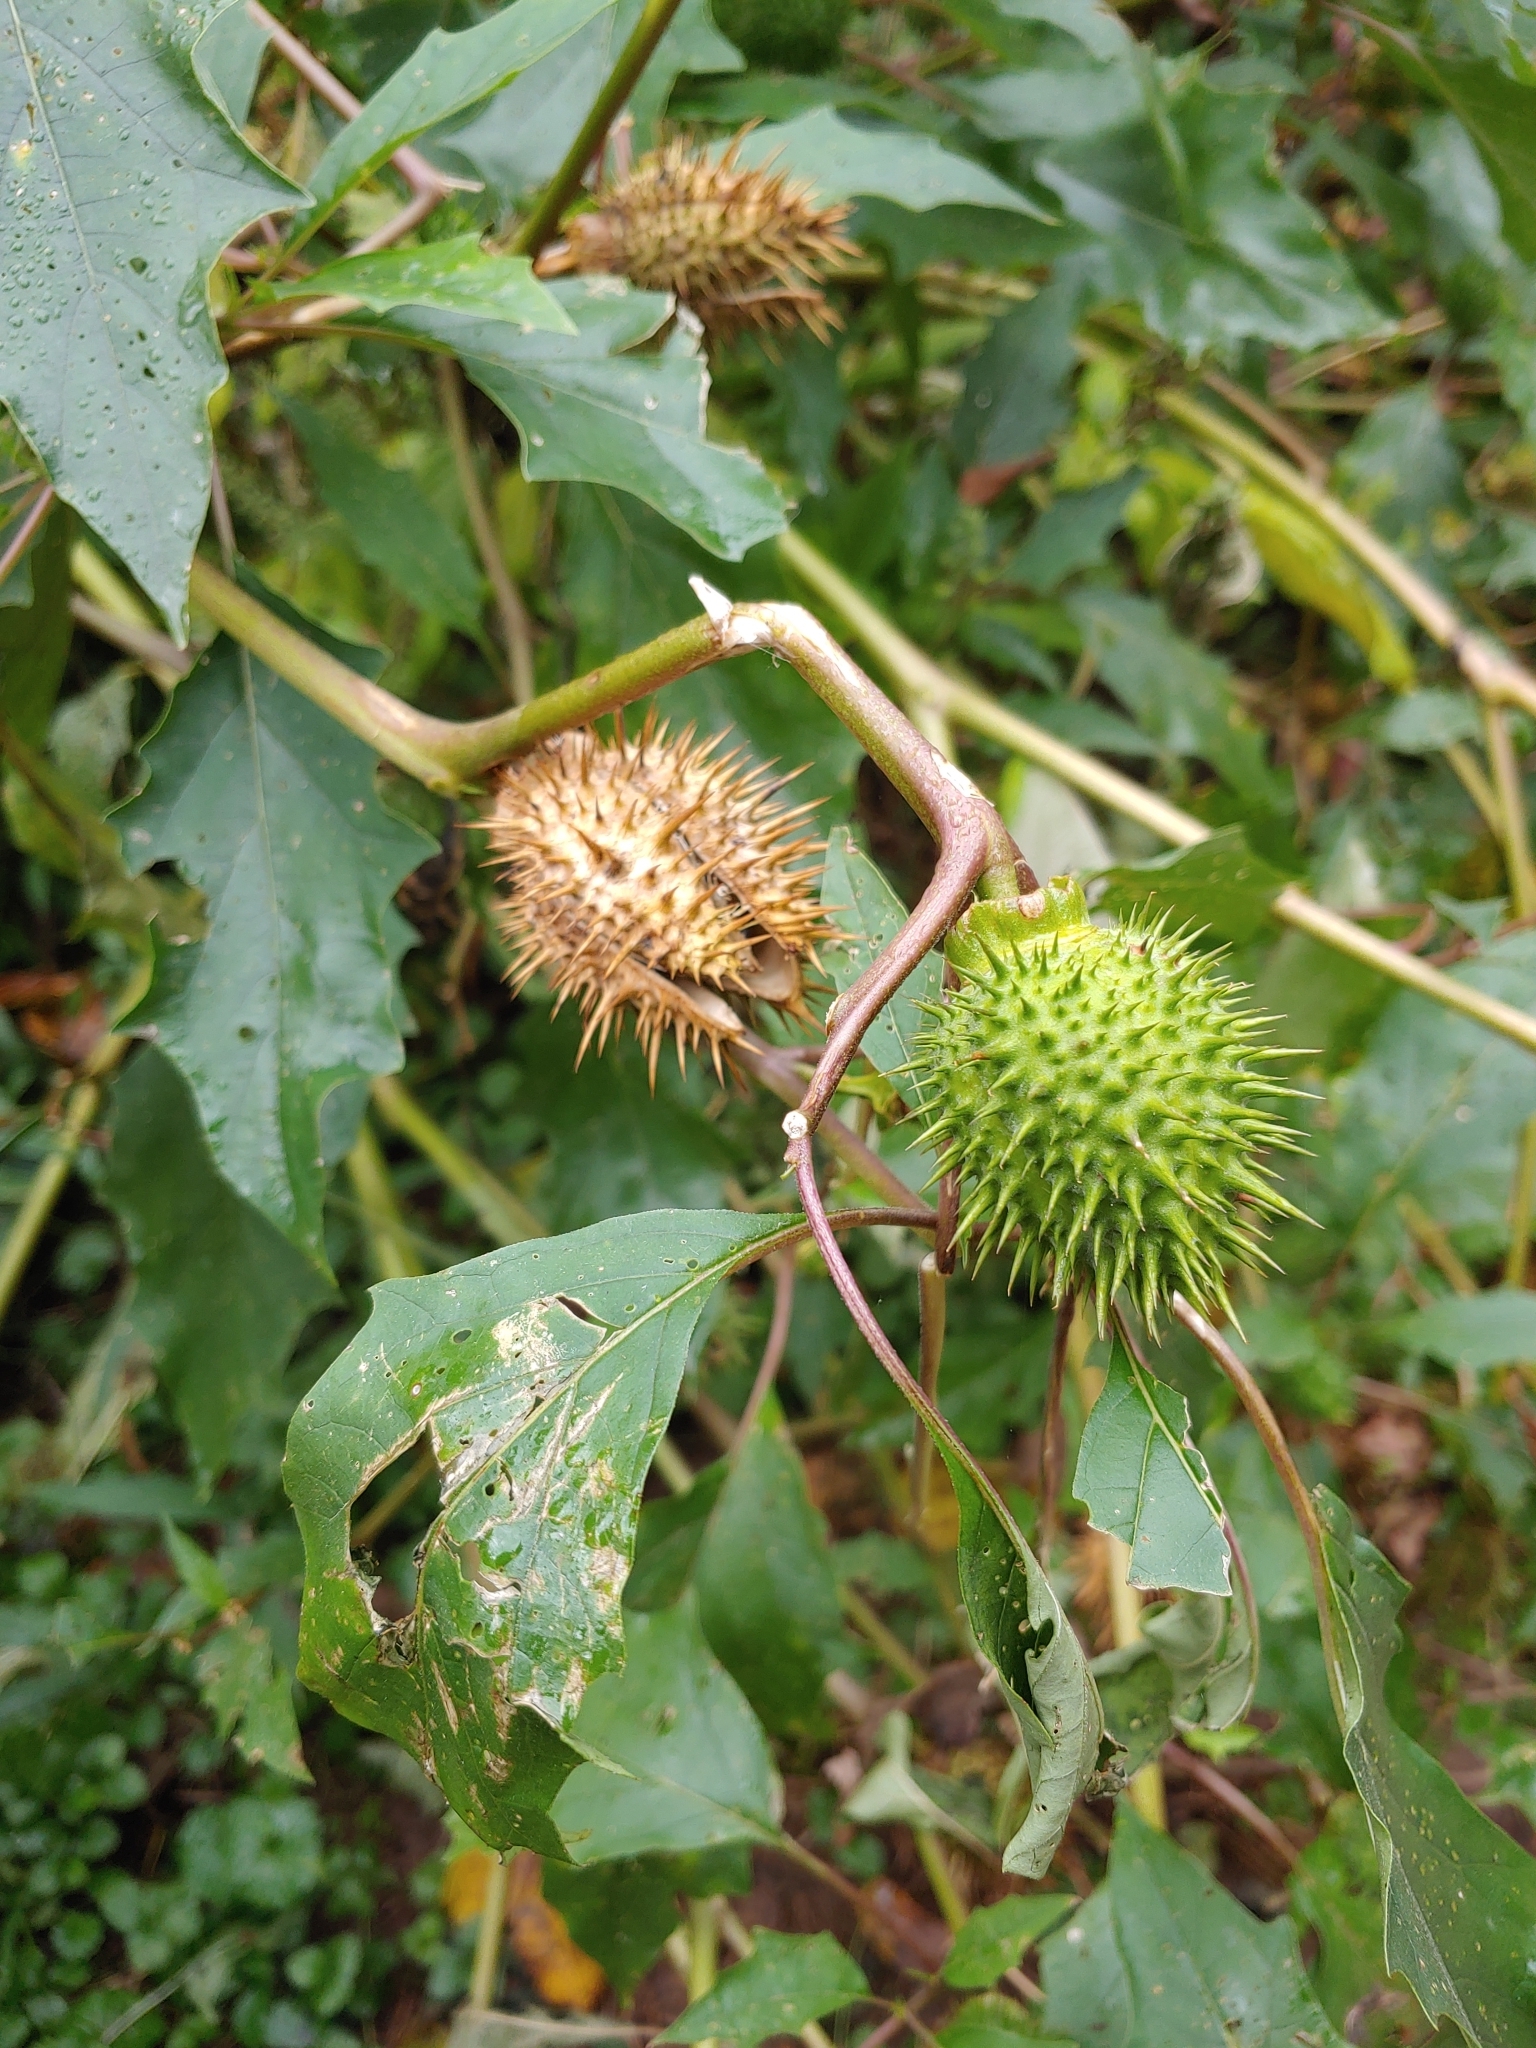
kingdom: Plantae
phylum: Tracheophyta
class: Magnoliopsida
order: Solanales
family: Solanaceae
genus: Datura
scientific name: Datura stramonium
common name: Thorn-apple
